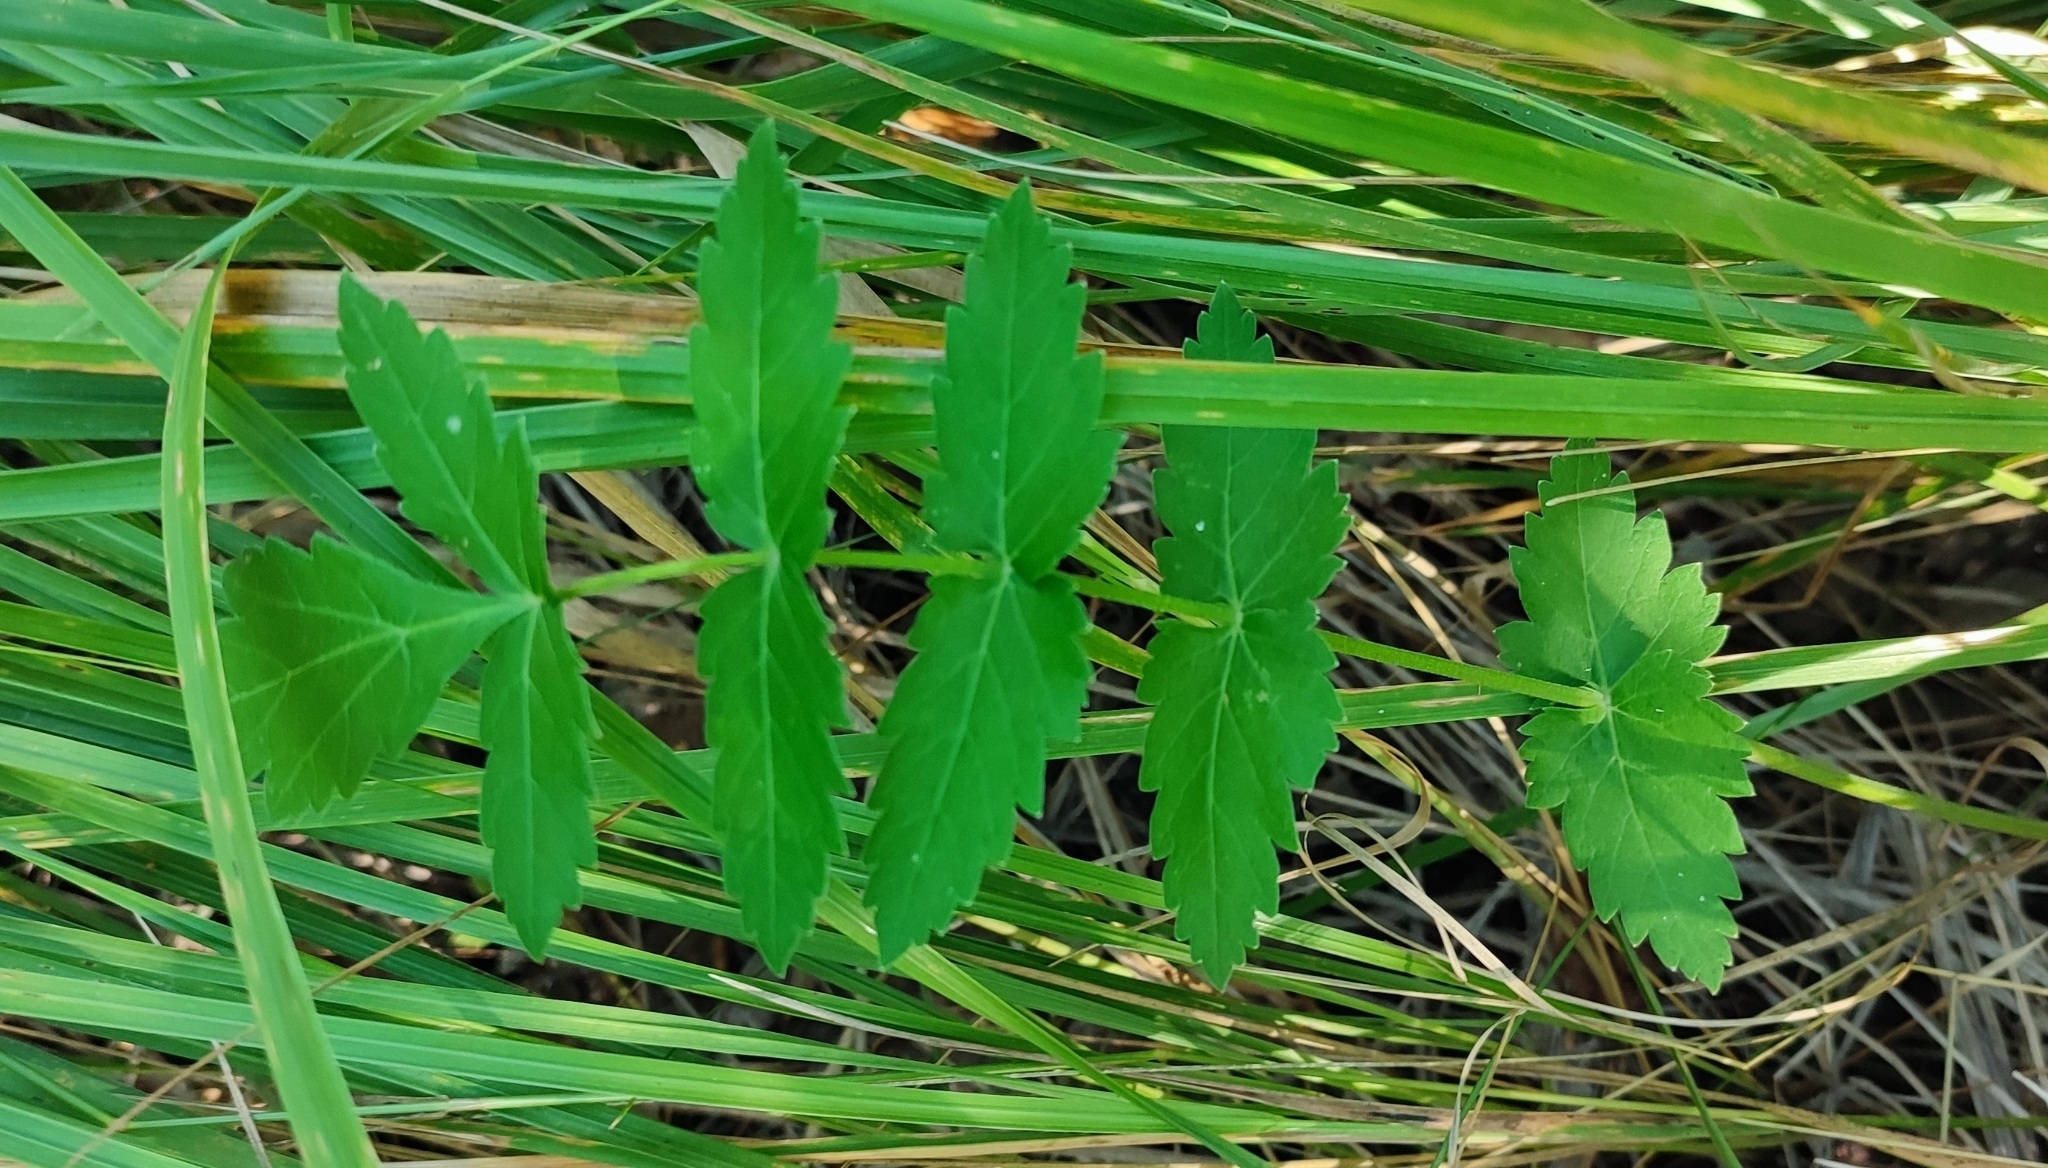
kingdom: Plantae
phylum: Tracheophyta
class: Magnoliopsida
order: Apiales
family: Apiaceae
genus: Pastinaca
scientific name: Pastinaca sativa
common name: Wild parsnip
